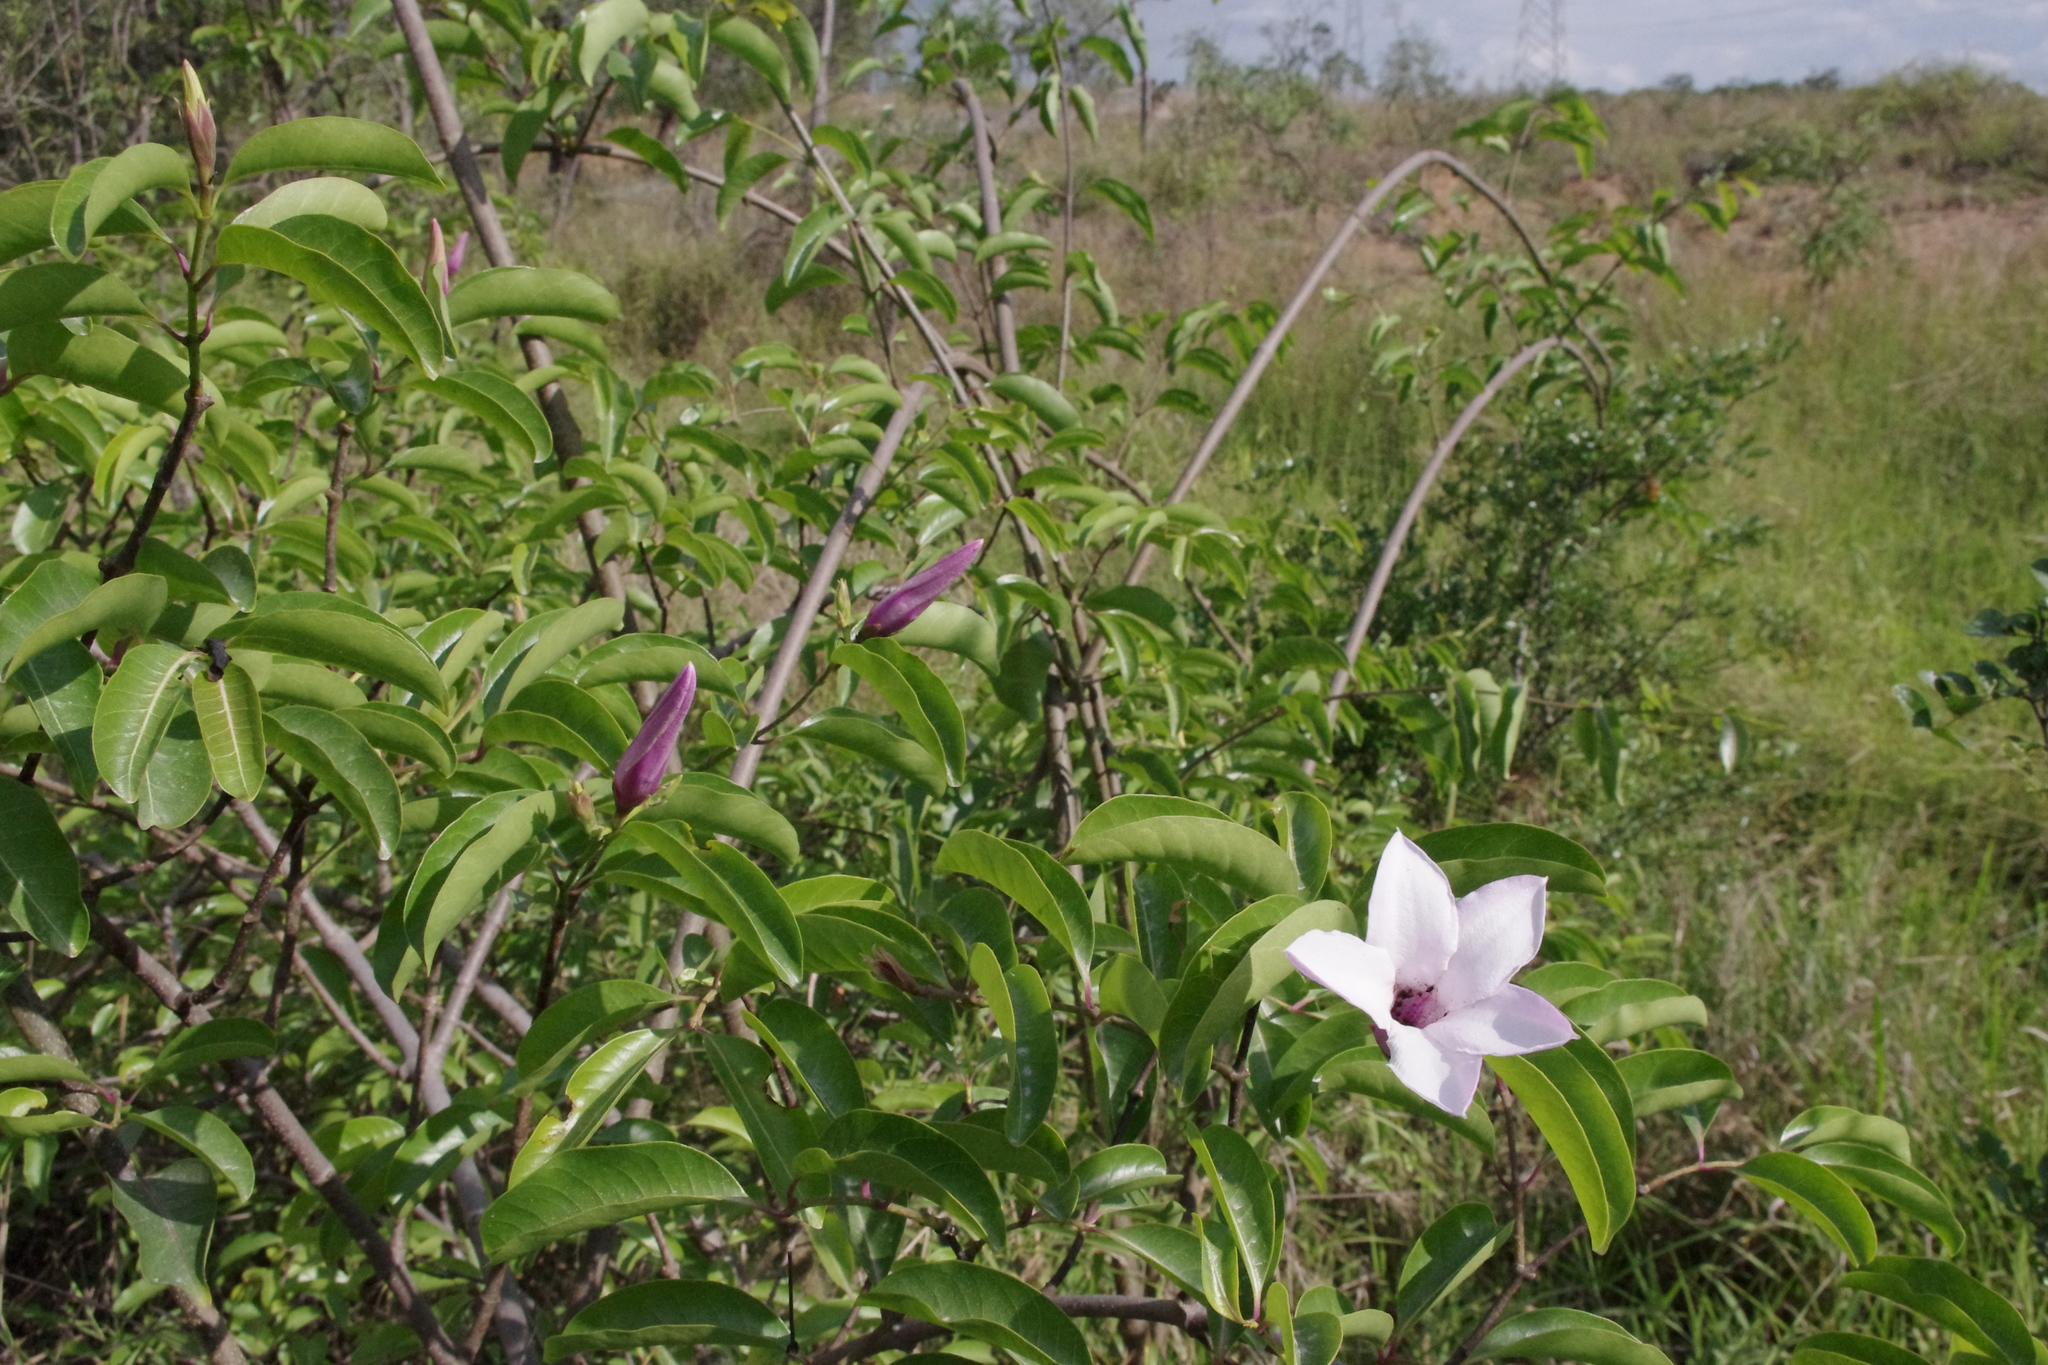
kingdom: Plantae
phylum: Tracheophyta
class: Magnoliopsida
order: Gentianales
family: Apocynaceae
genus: Cryptostegia
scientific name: Cryptostegia grandiflora
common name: Palay rubbervine
